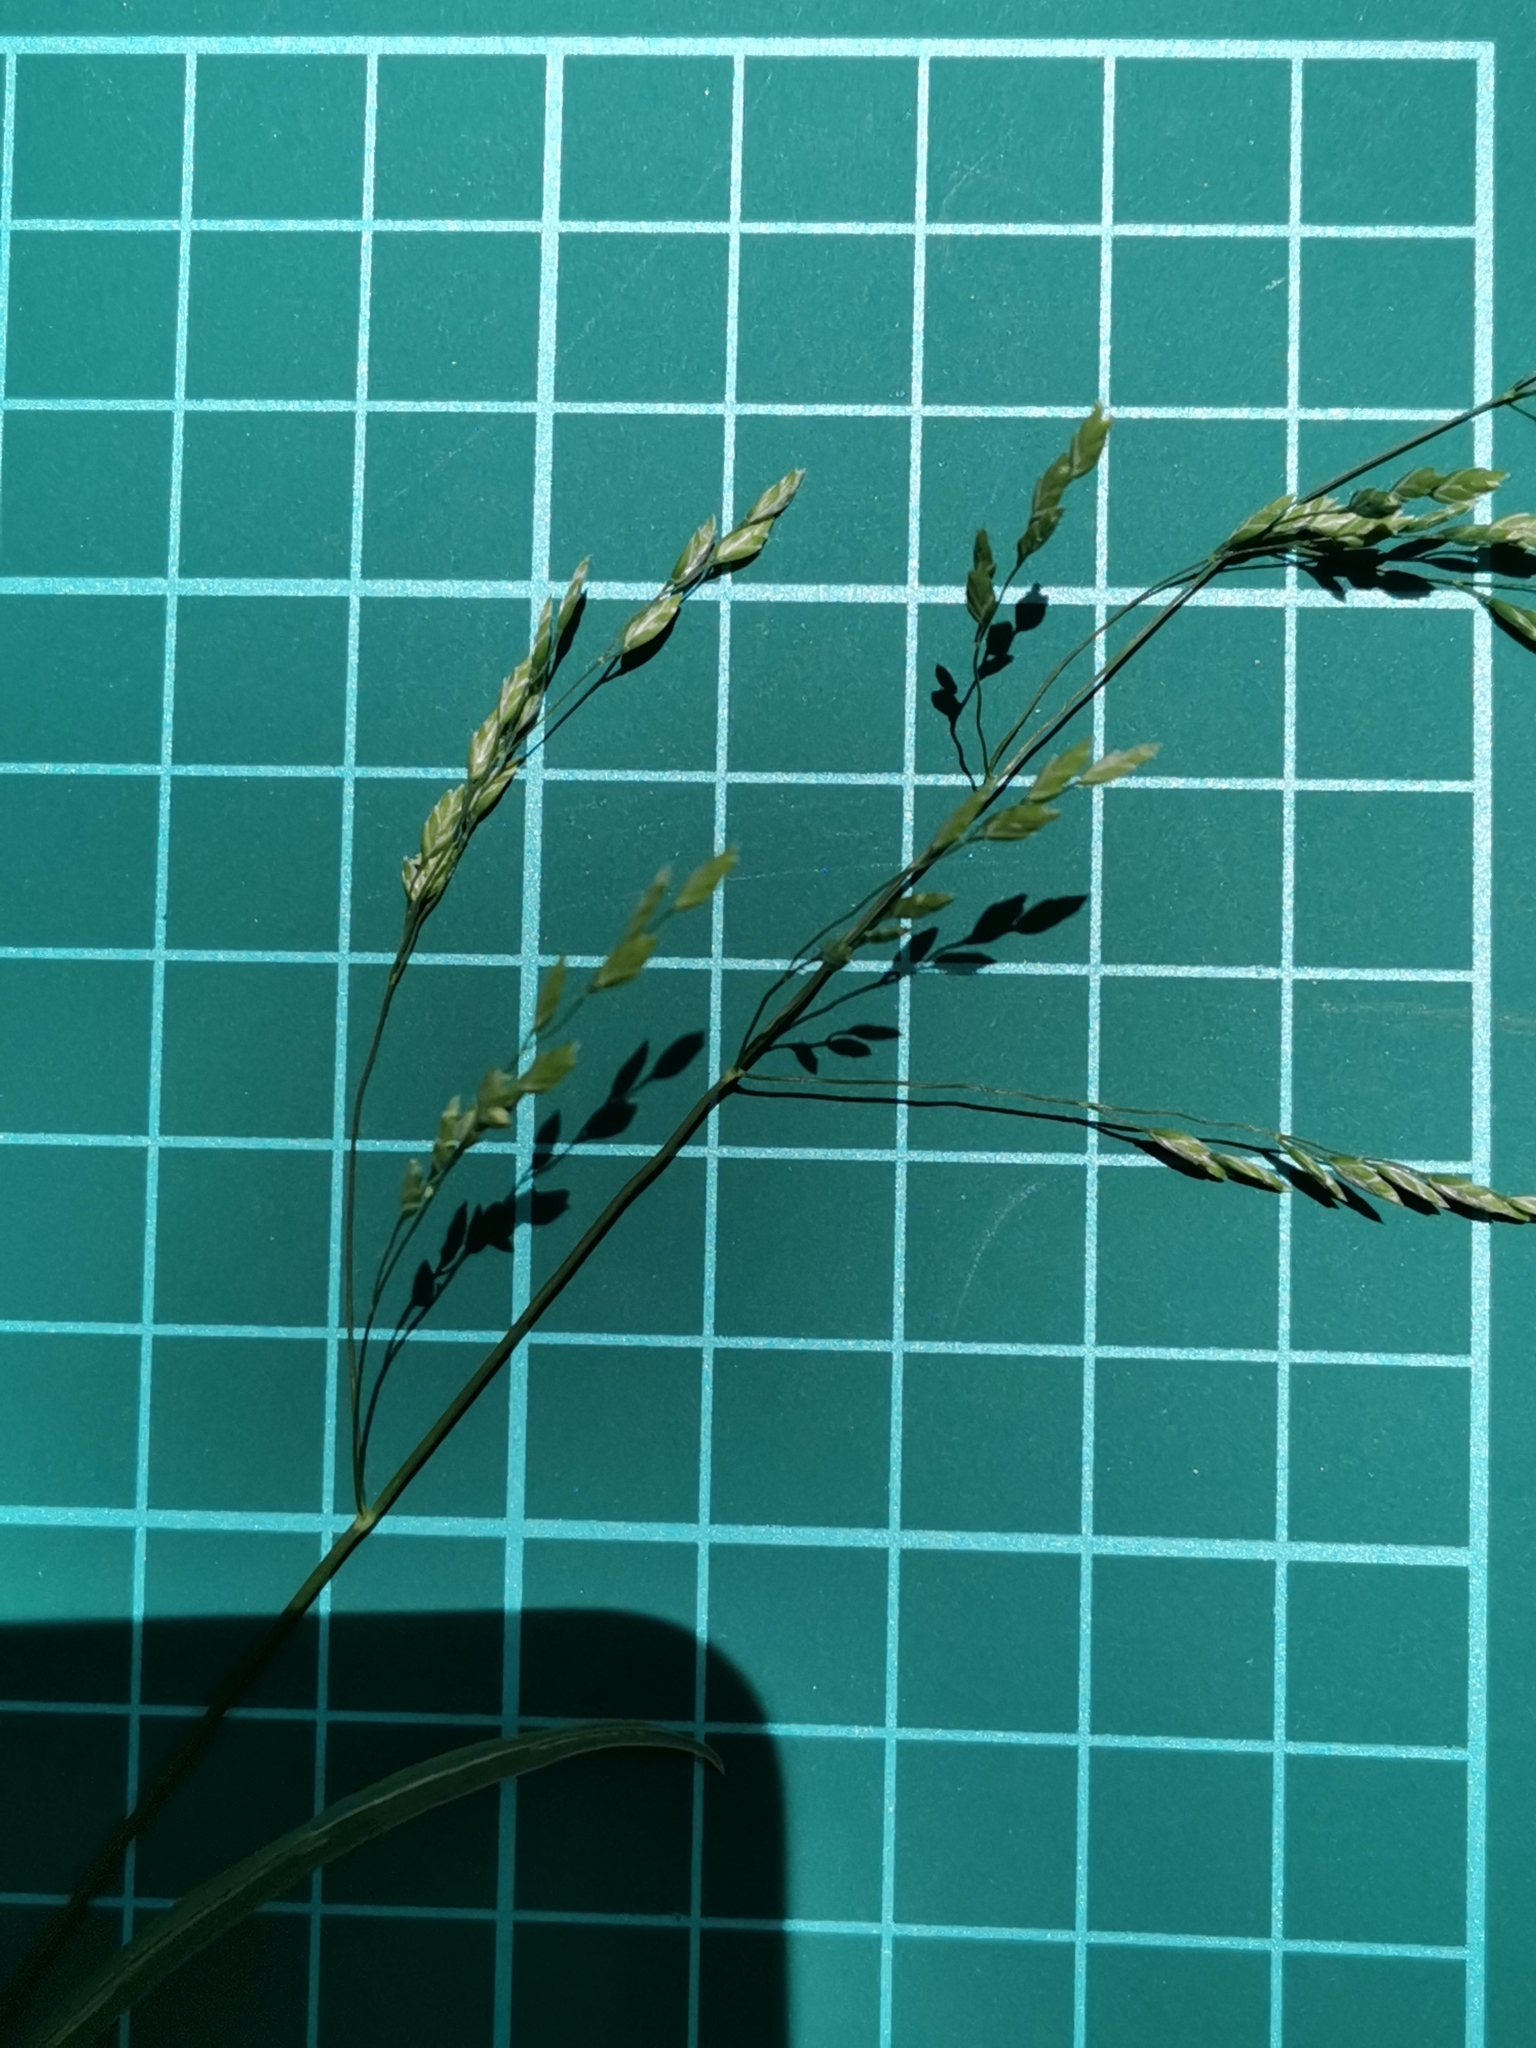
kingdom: Plantae
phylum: Tracheophyta
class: Liliopsida
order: Poales
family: Poaceae
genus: Poa
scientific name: Poa acroleuca
